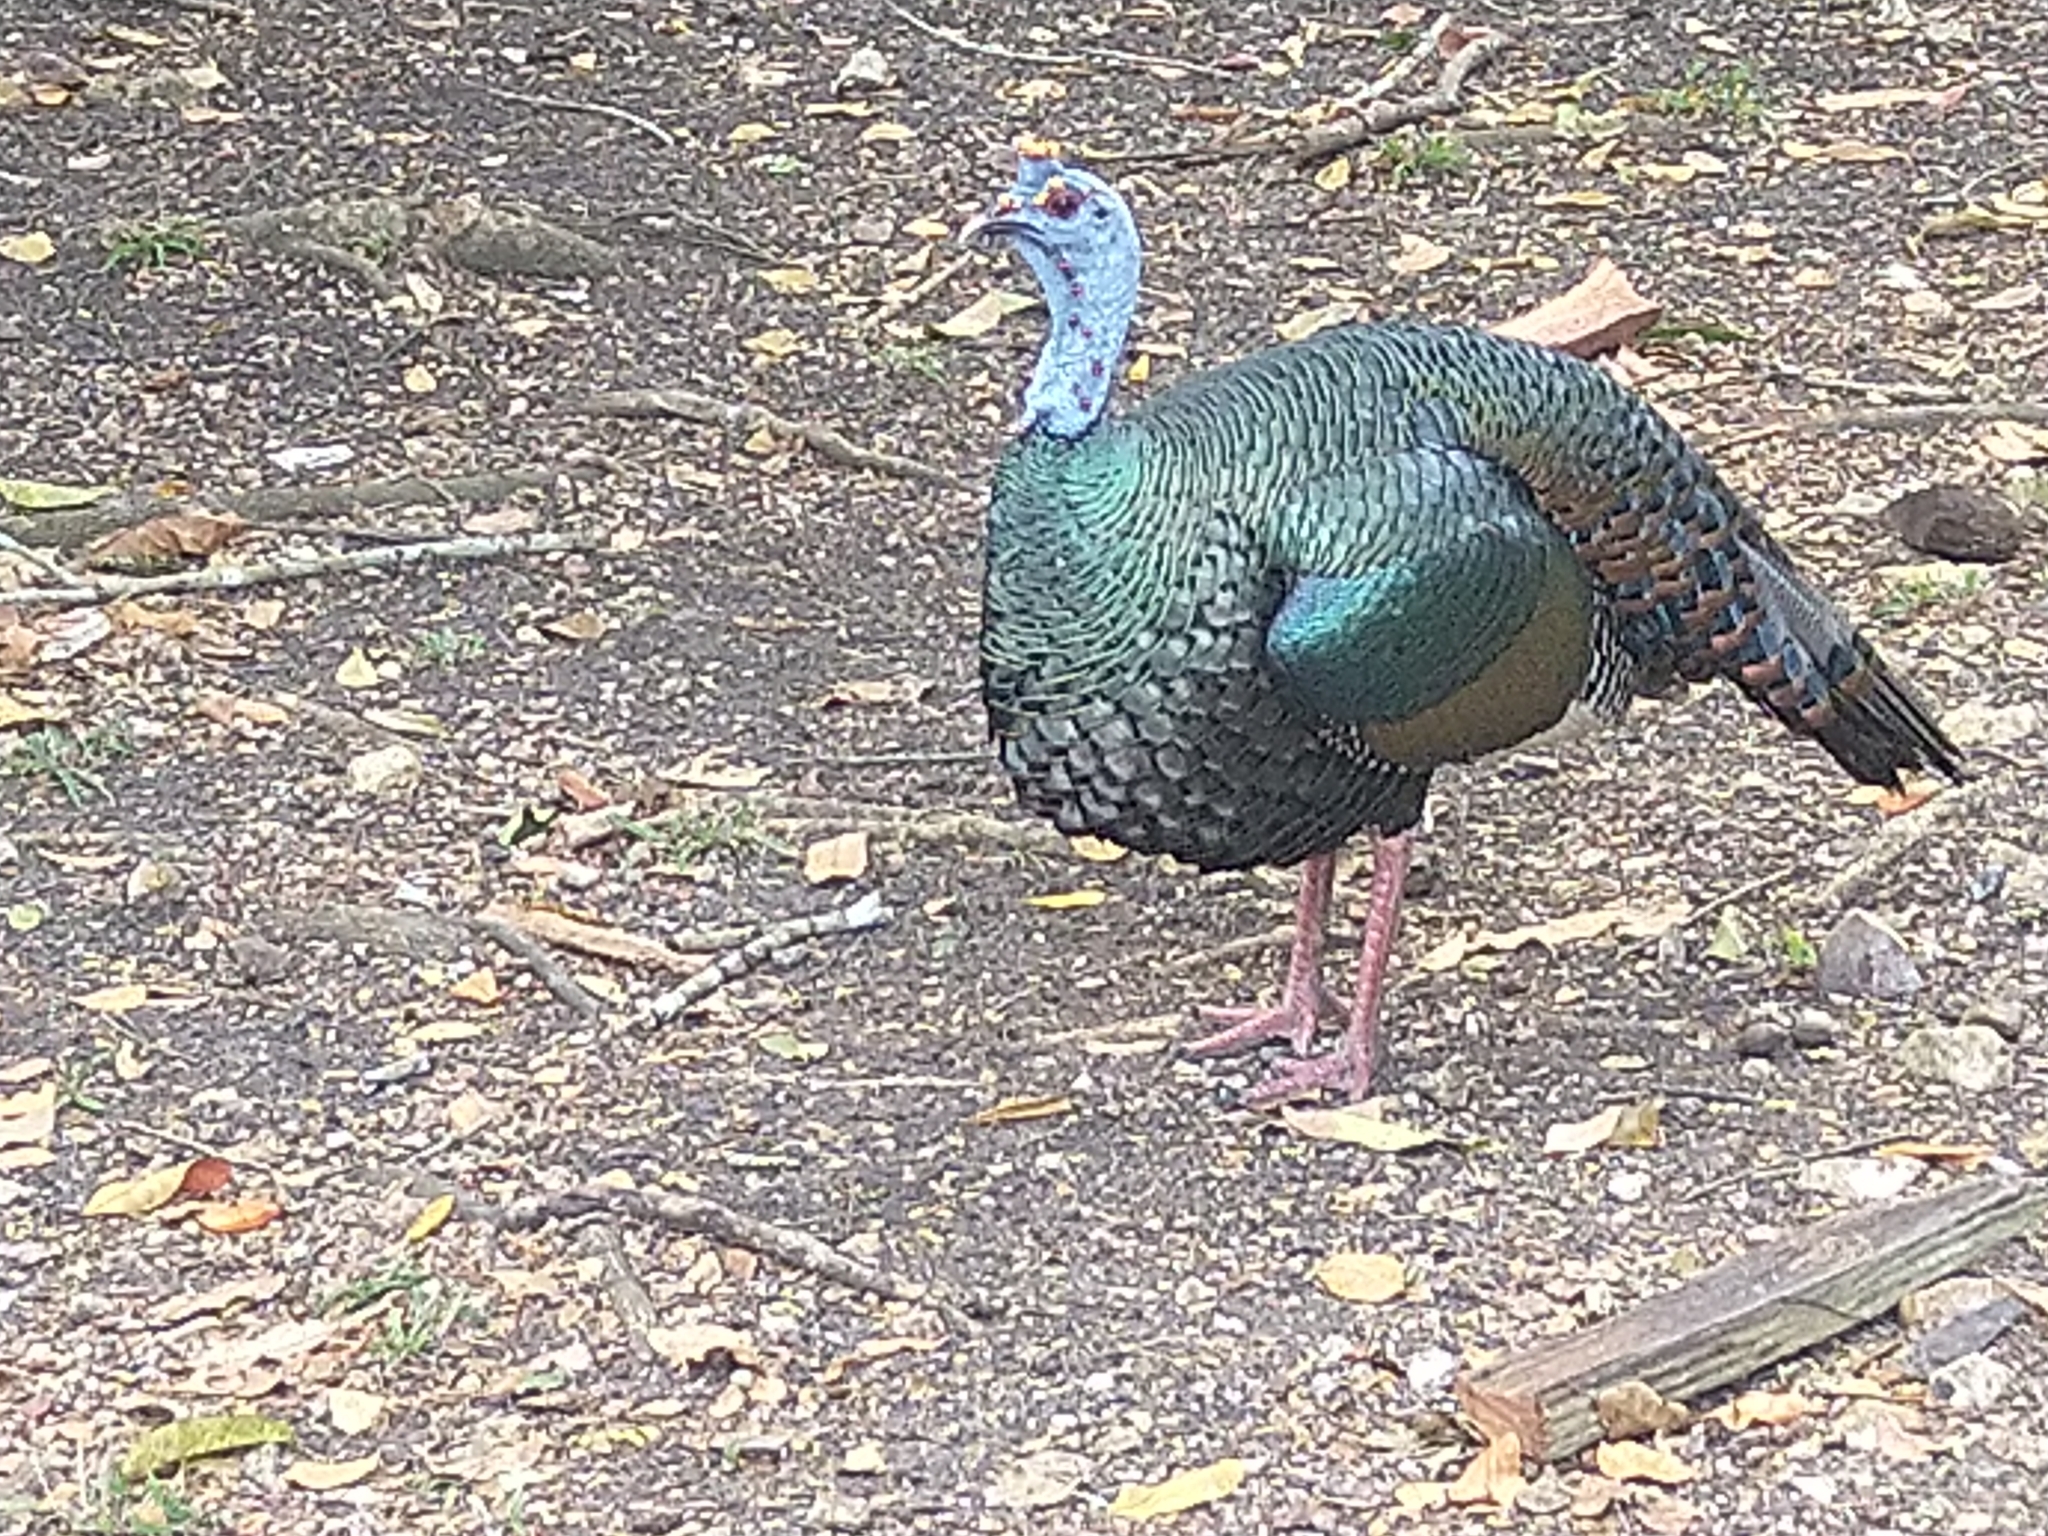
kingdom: Animalia
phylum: Chordata
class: Aves
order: Galliformes
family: Phasianidae
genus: Meleagris
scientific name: Meleagris ocellata
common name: Ocellated turkey
